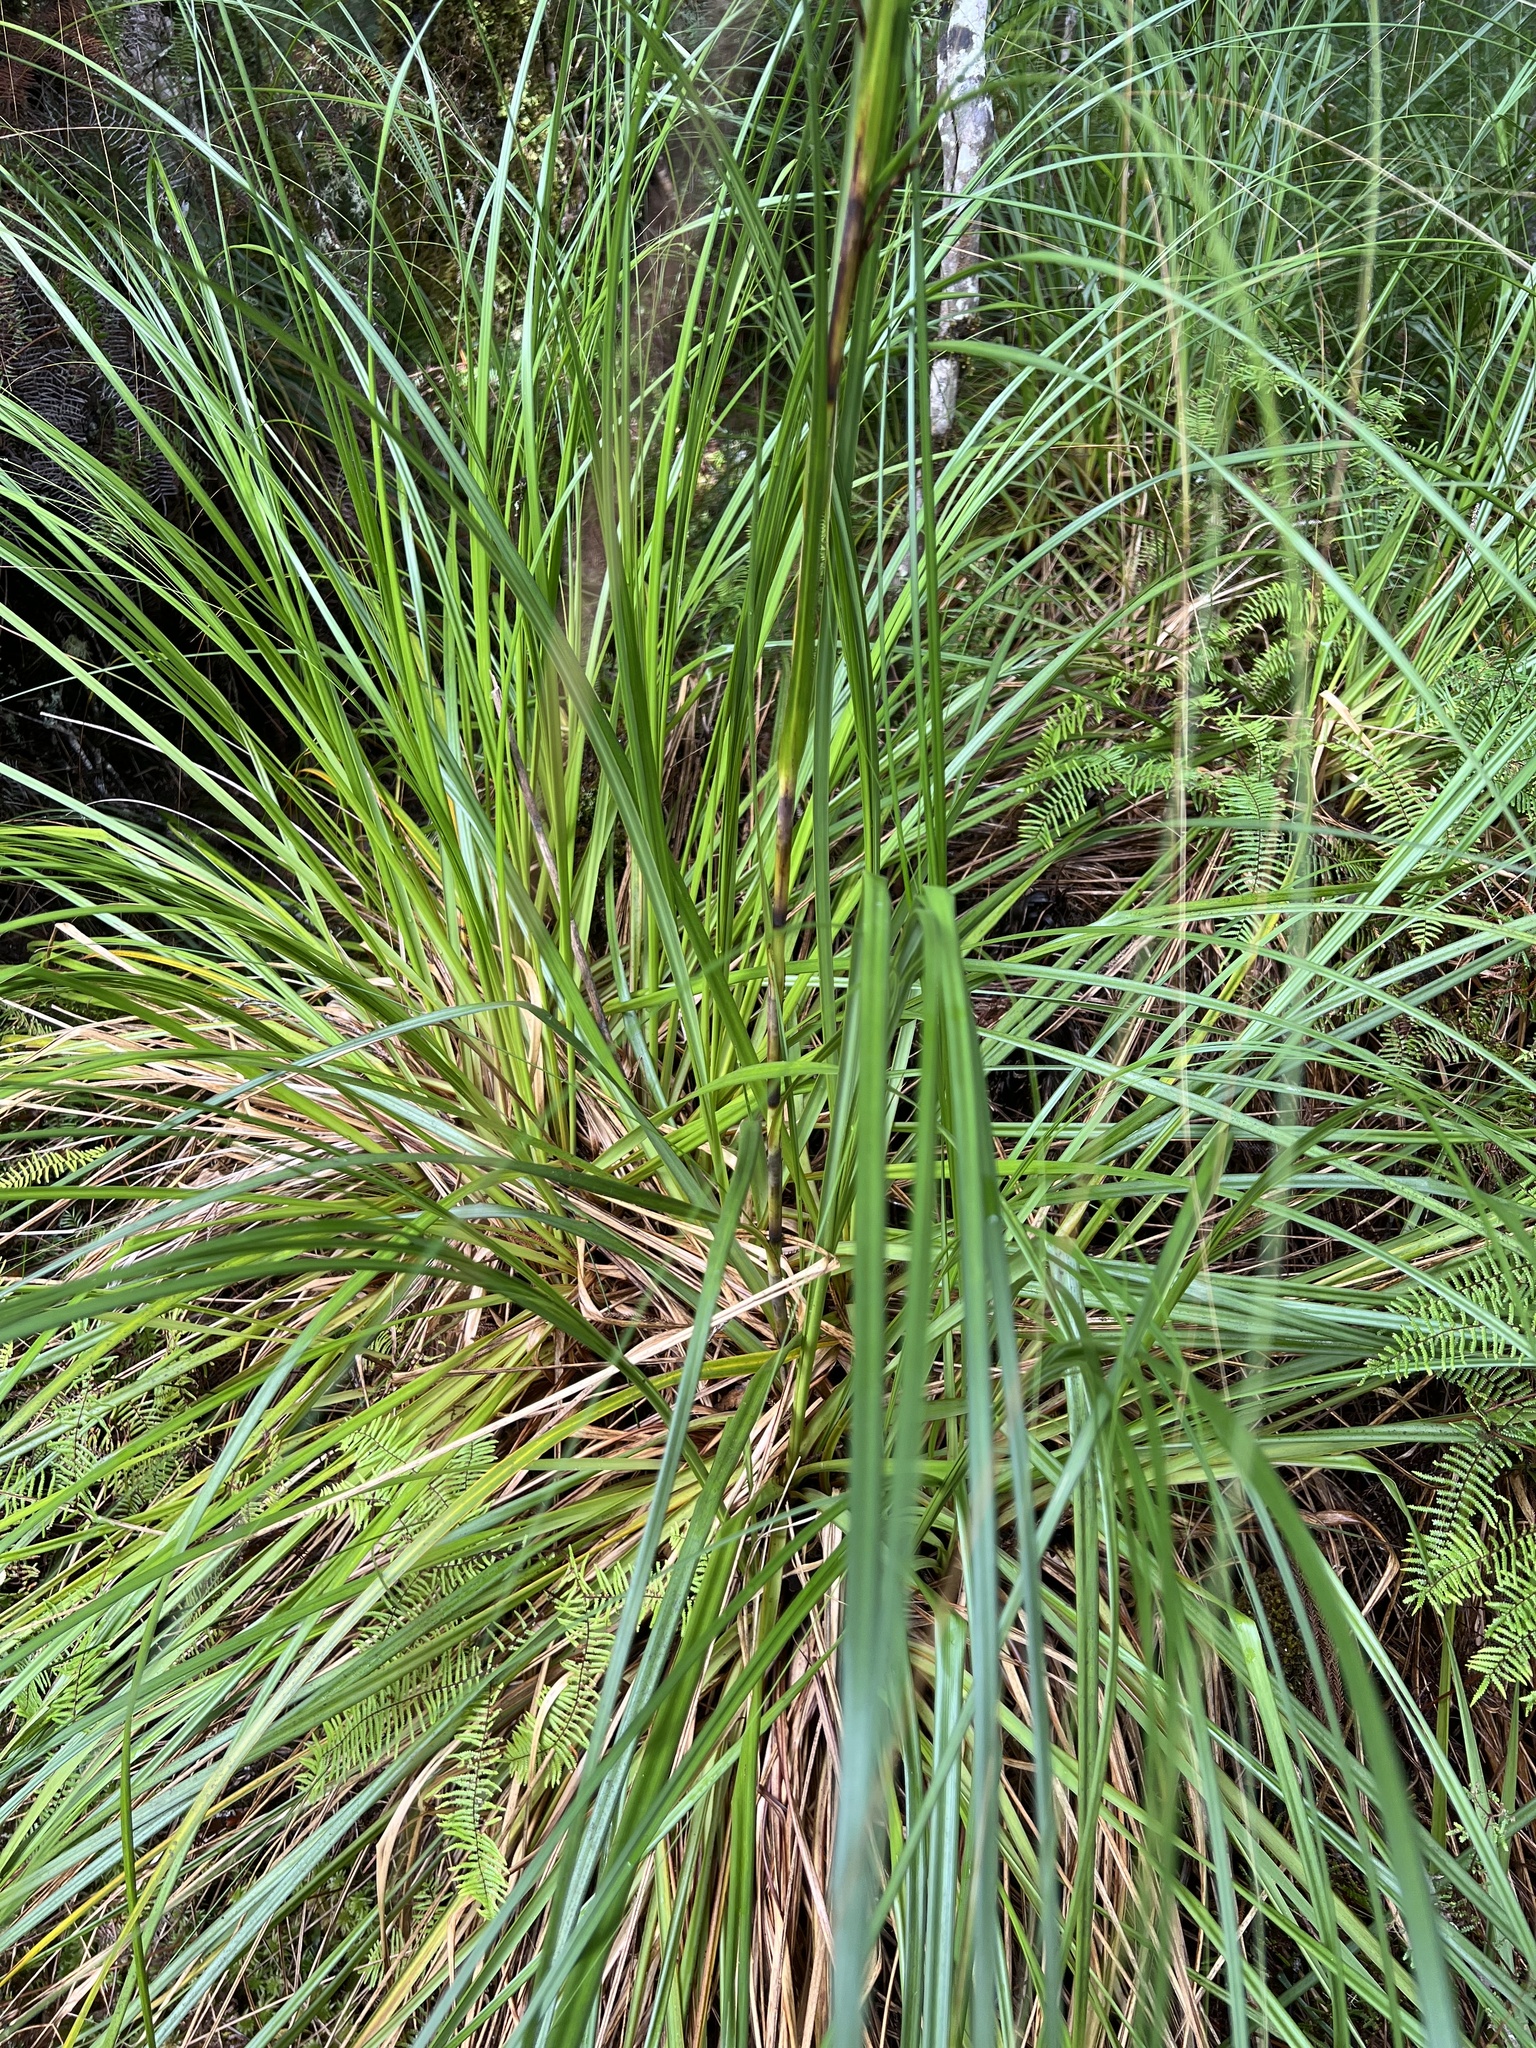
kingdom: Plantae
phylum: Tracheophyta
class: Liliopsida
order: Poales
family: Cyperaceae
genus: Gahnia
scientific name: Gahnia rigida
